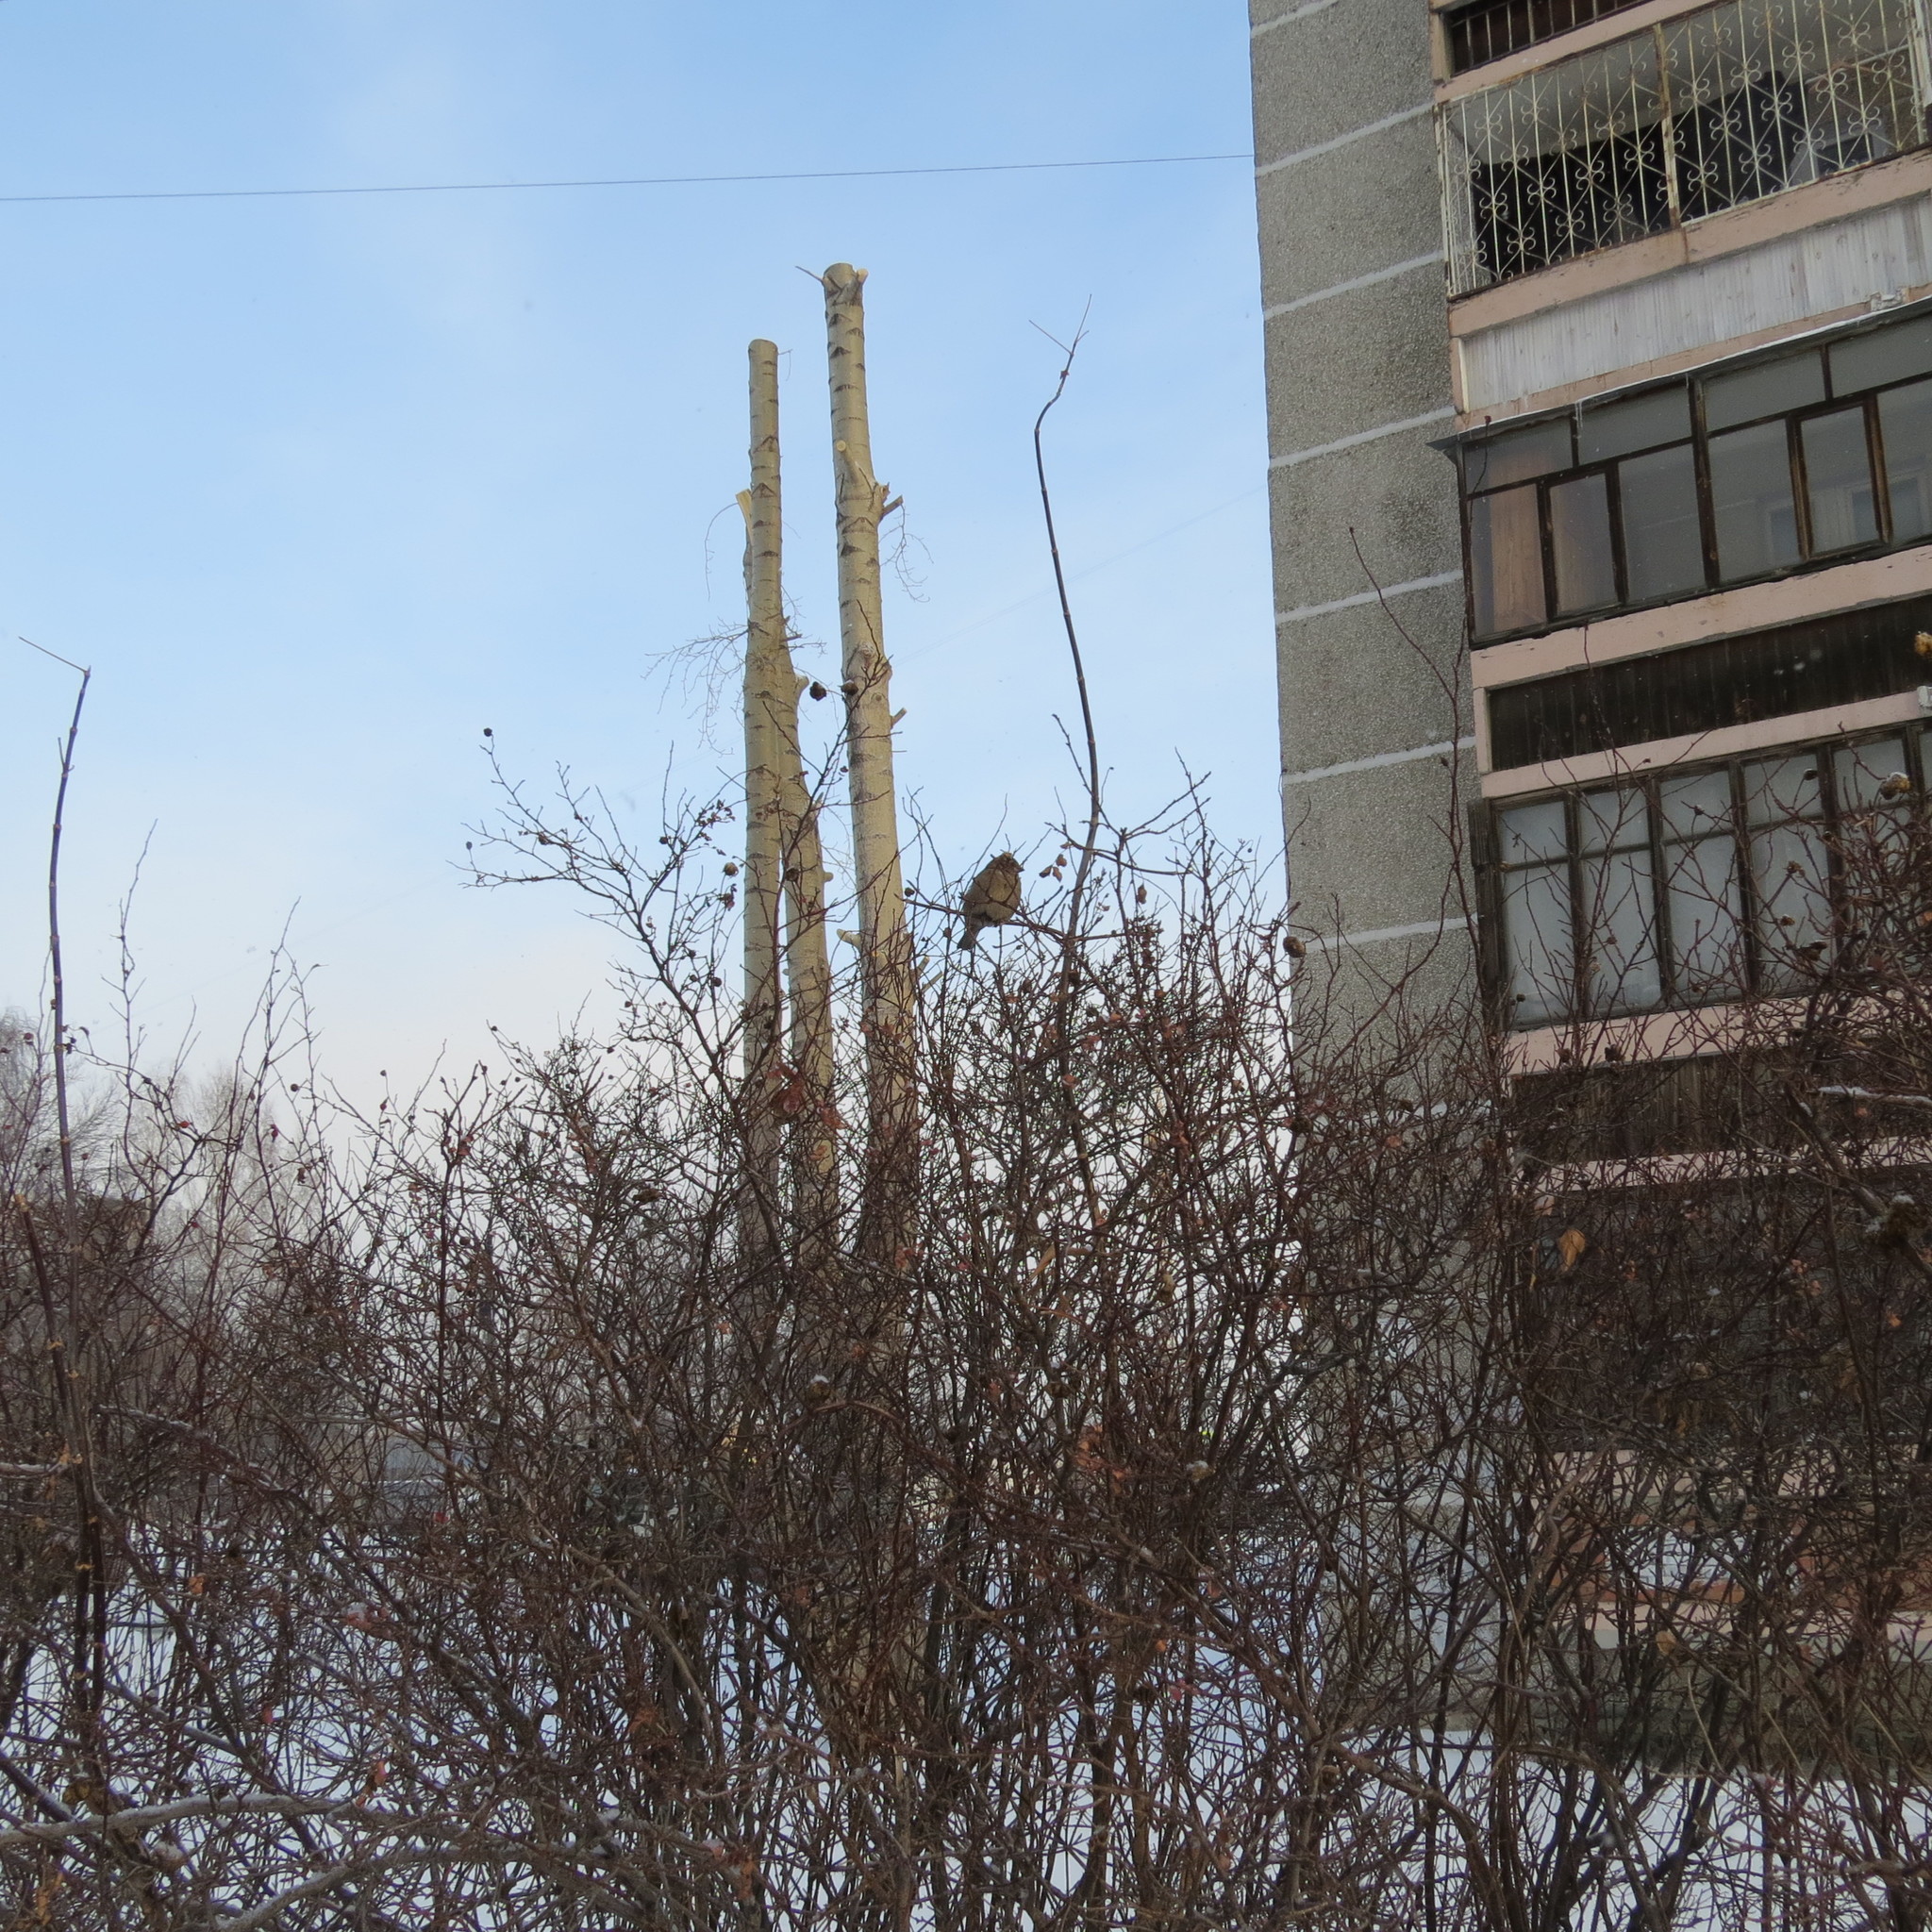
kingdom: Animalia
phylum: Chordata
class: Aves
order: Passeriformes
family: Passeridae
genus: Passer
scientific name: Passer domesticus
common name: House sparrow
